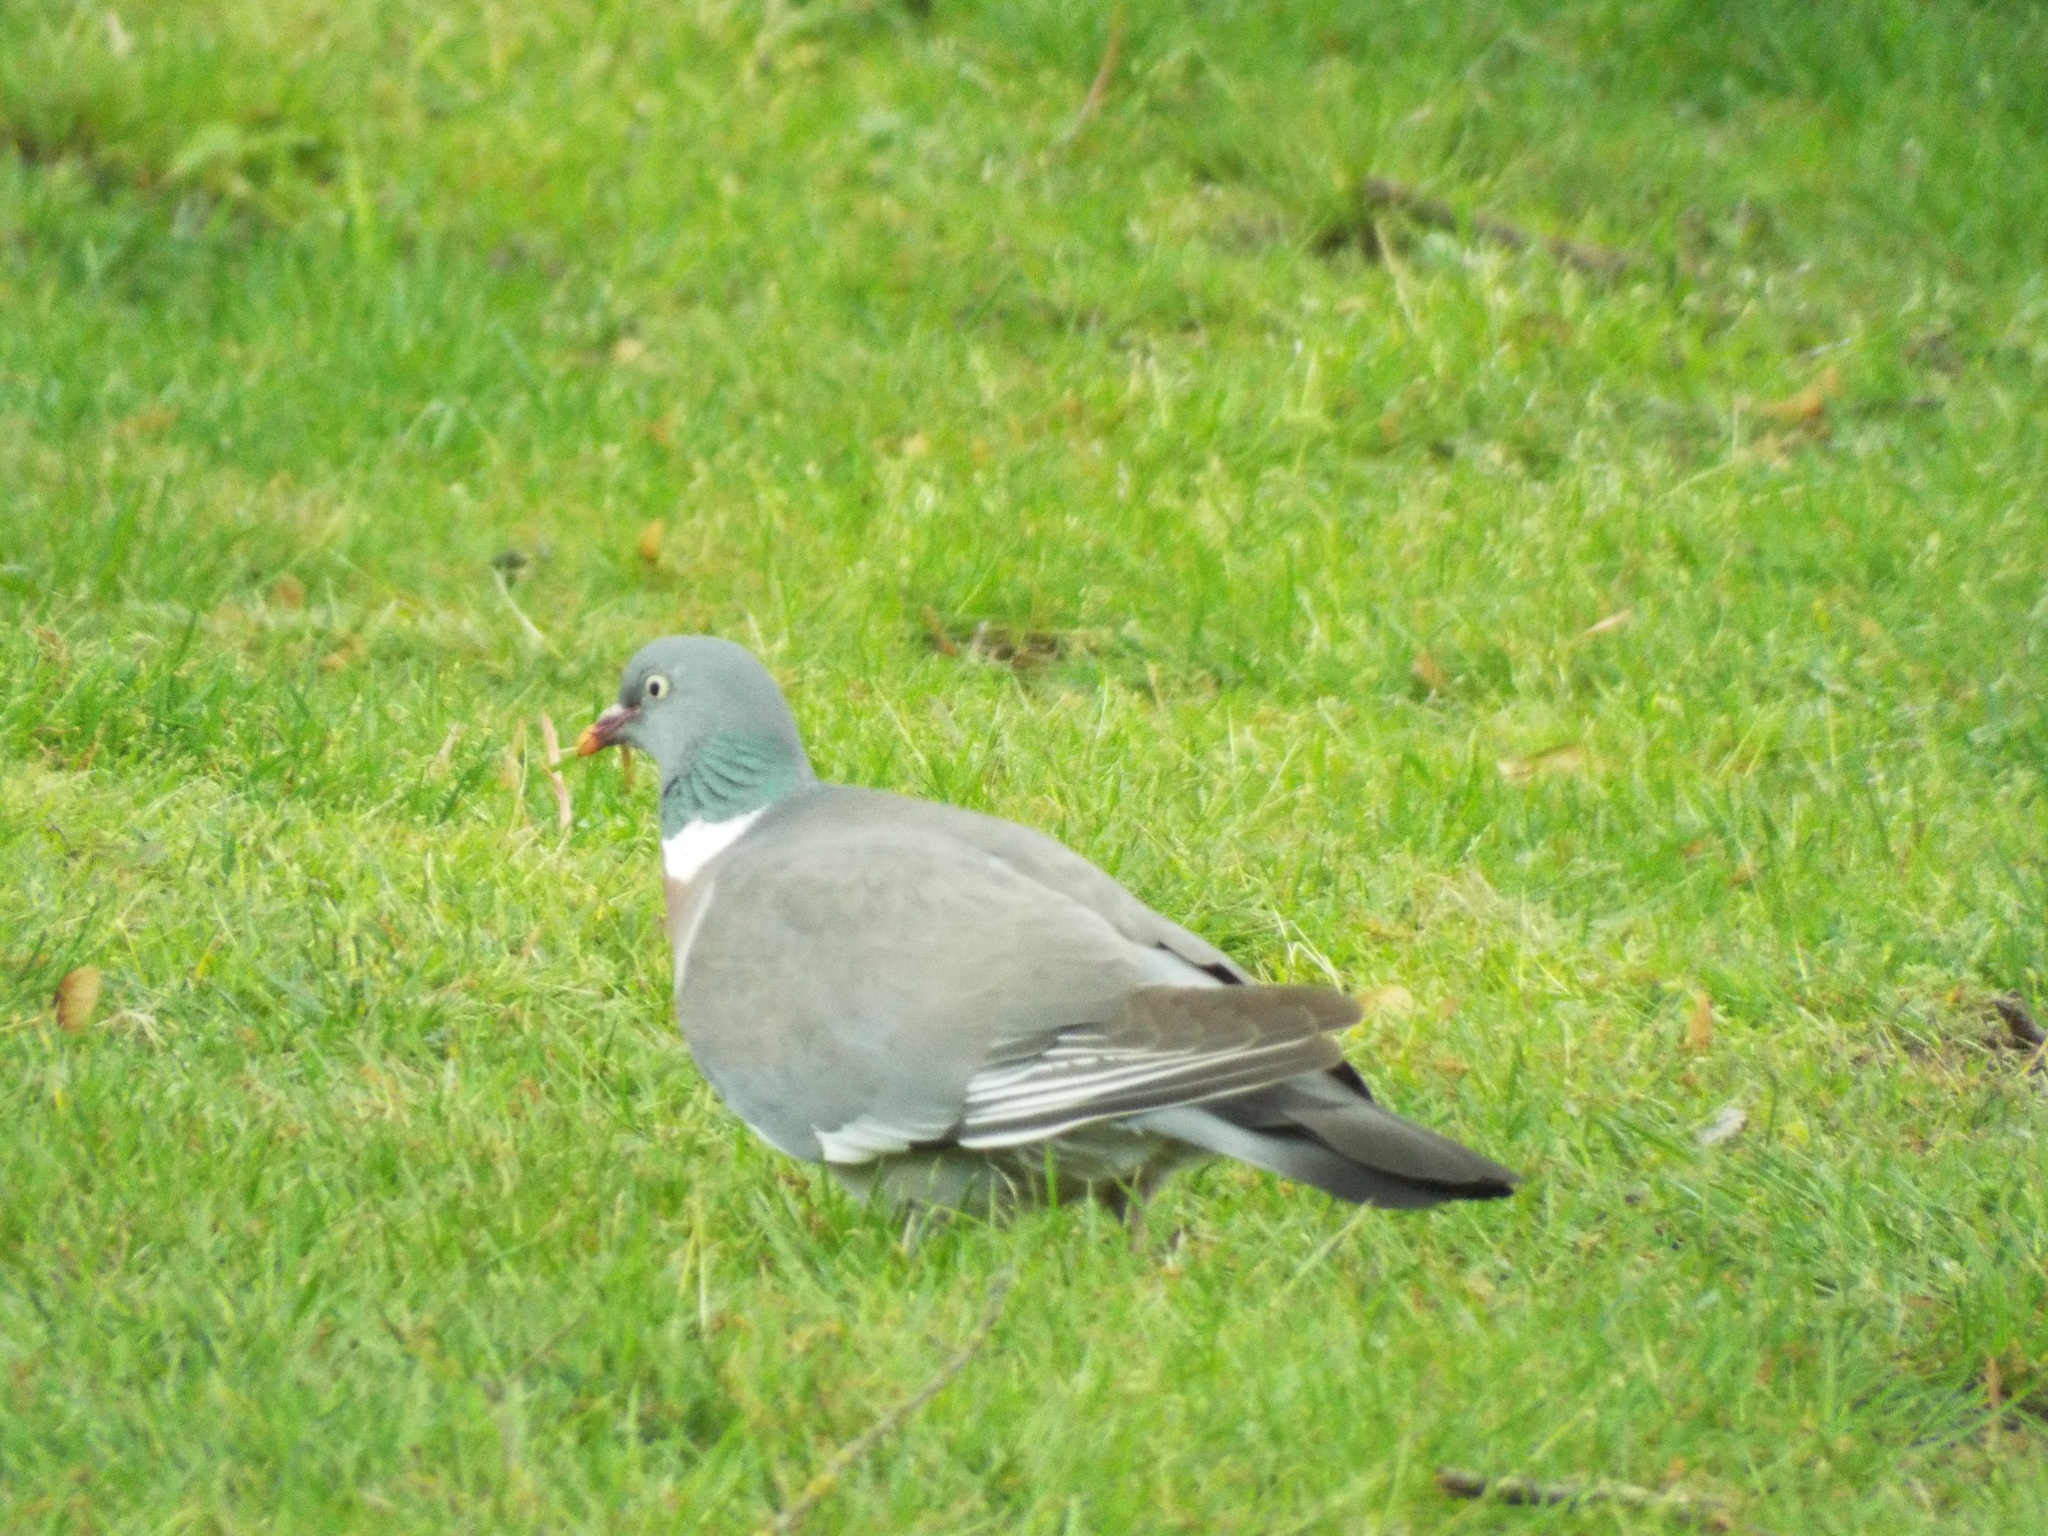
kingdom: Animalia
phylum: Chordata
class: Aves
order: Columbiformes
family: Columbidae
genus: Columba
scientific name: Columba palumbus
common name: Common wood pigeon
